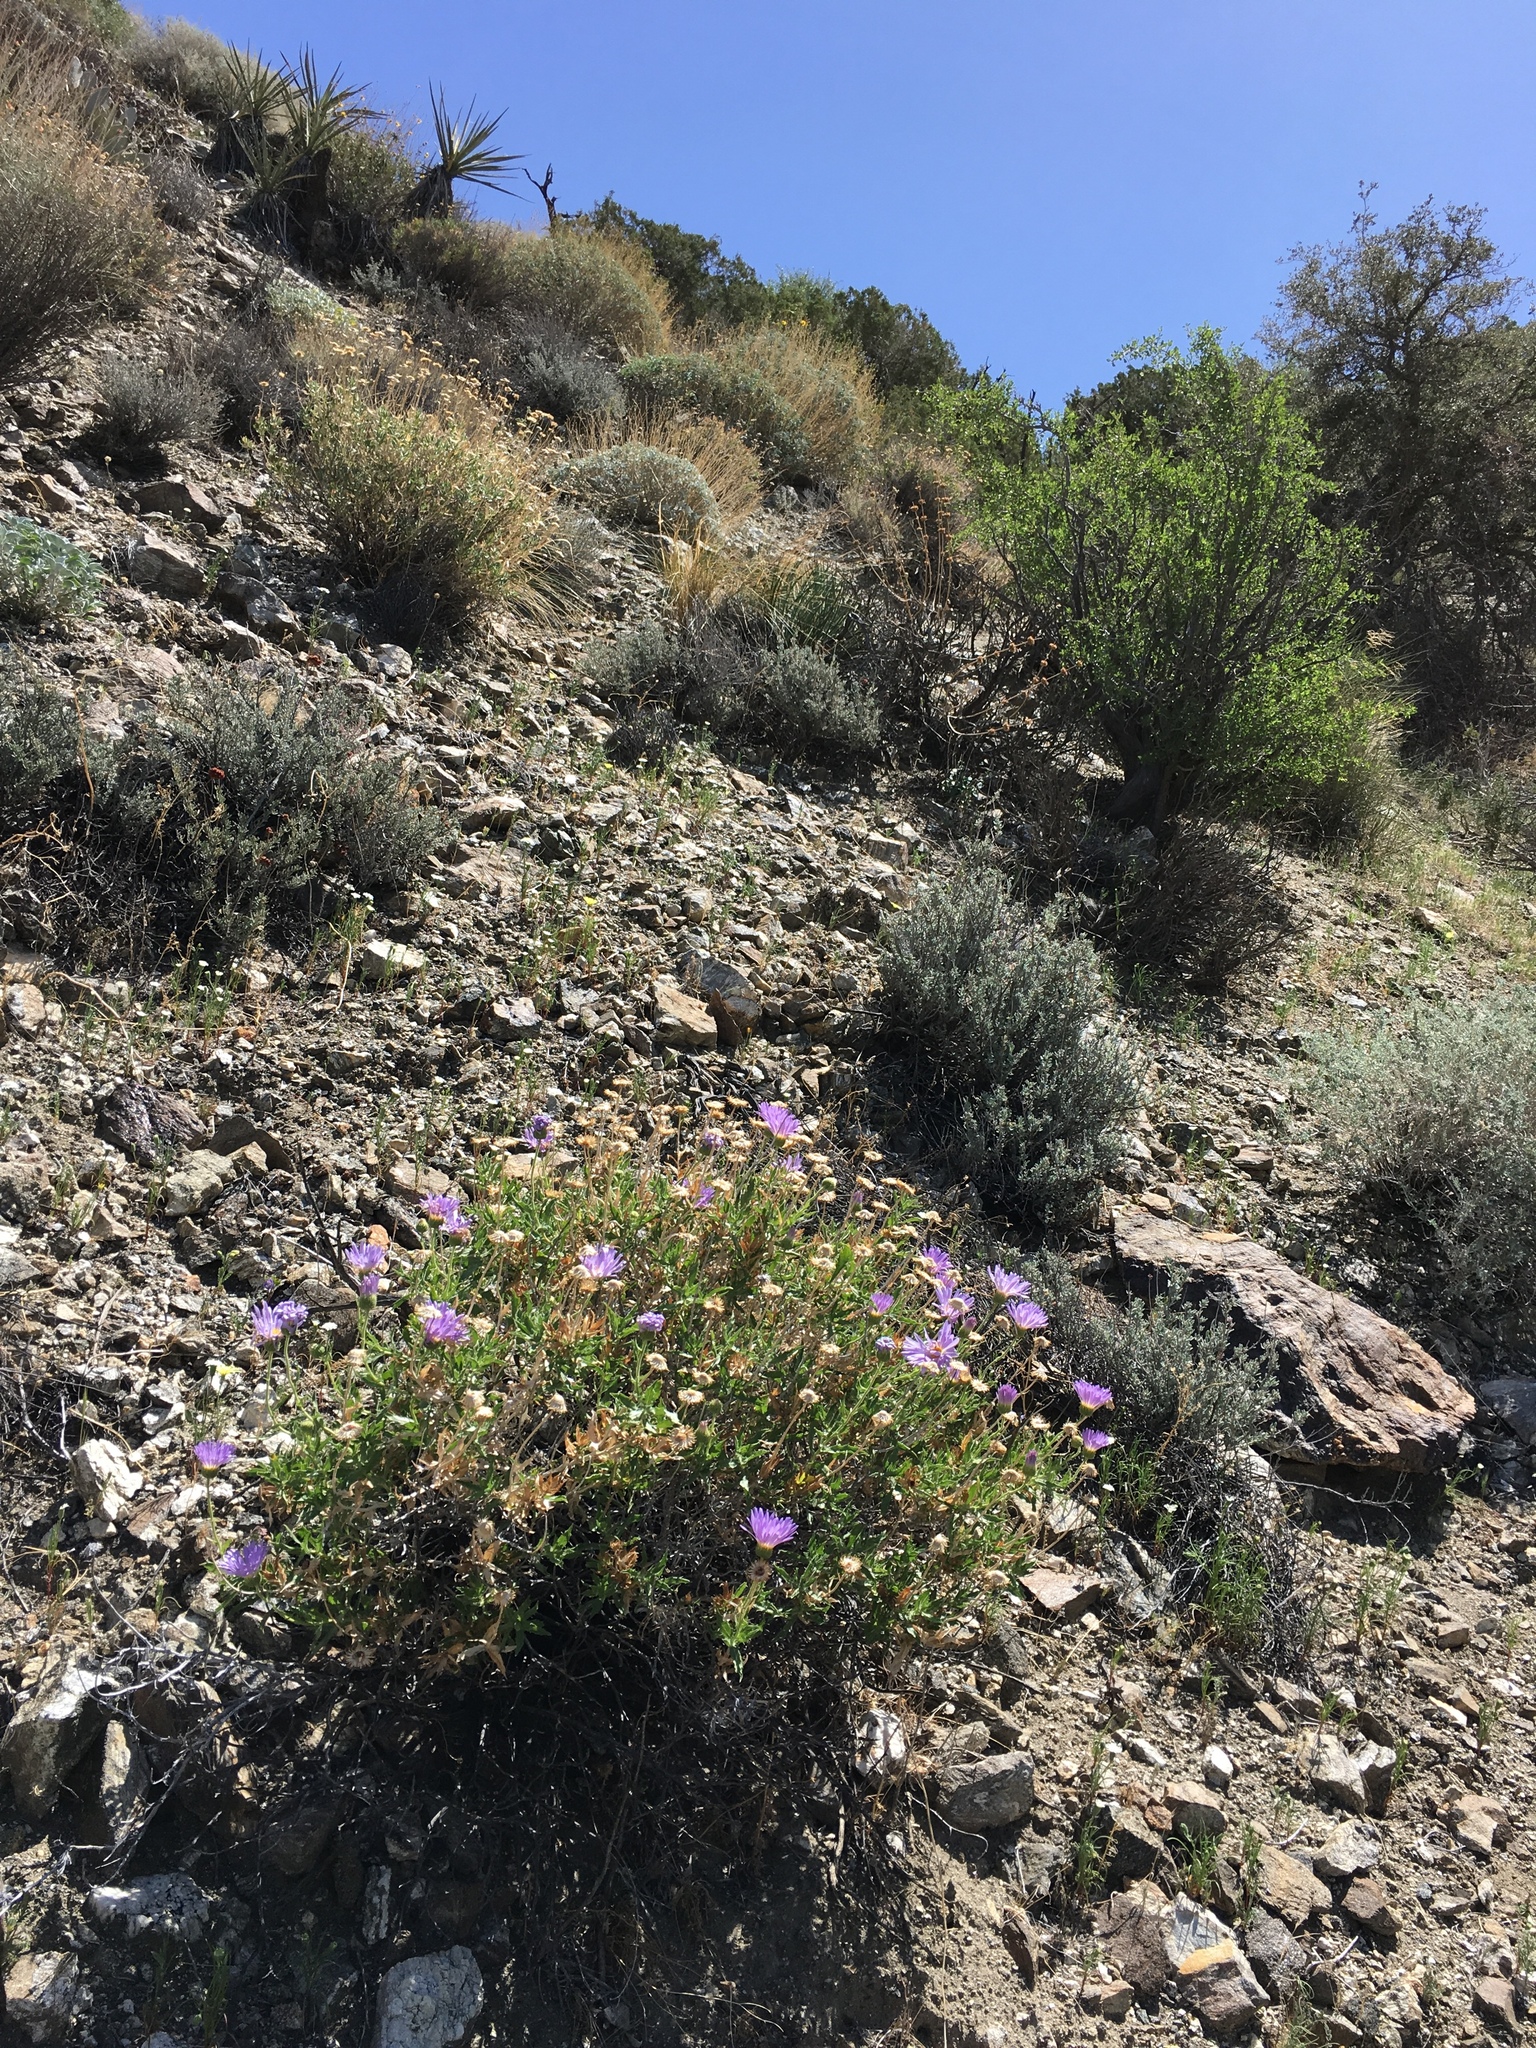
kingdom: Plantae
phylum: Tracheophyta
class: Magnoliopsida
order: Asterales
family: Asteraceae
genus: Xylorhiza
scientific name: Xylorhiza tortifolia
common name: Hurt-leaf woody-aster
